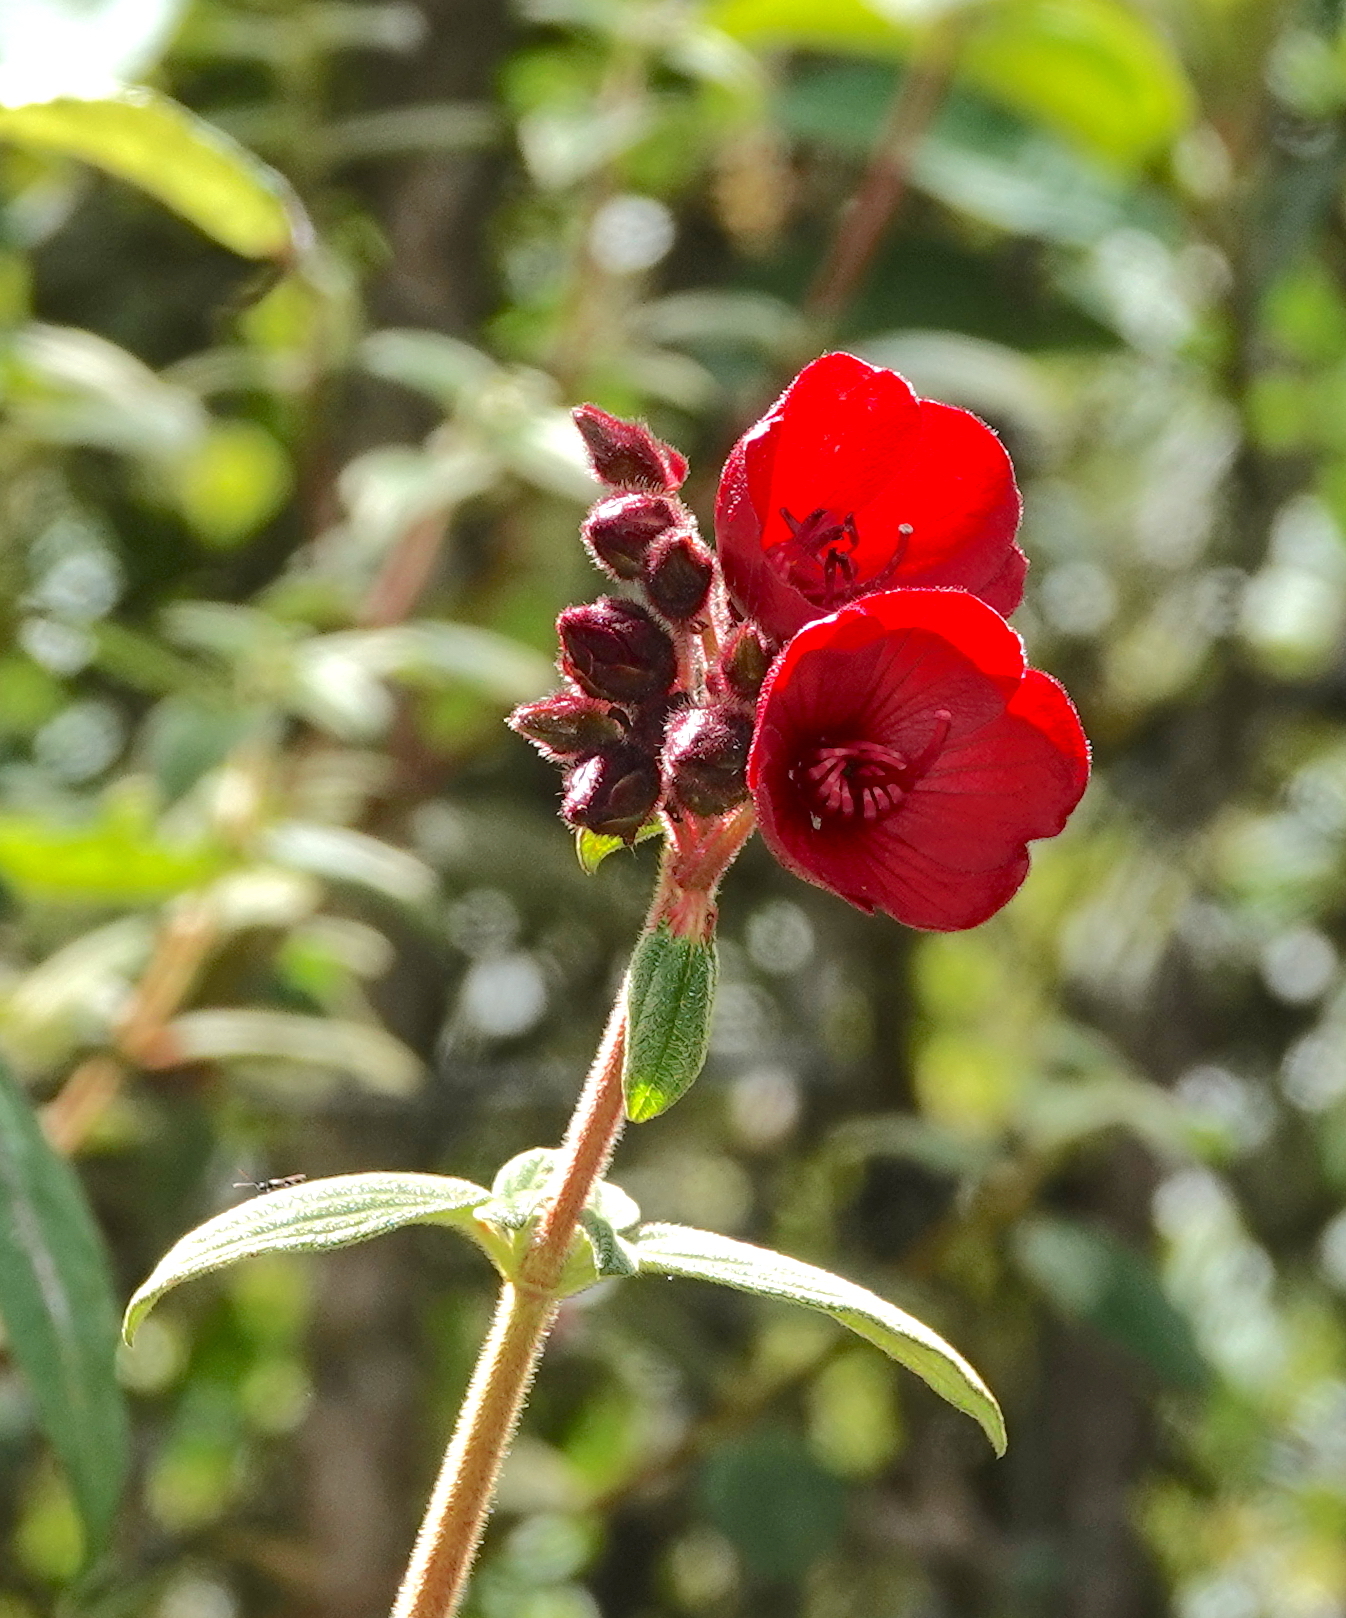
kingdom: Plantae
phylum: Tracheophyta
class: Magnoliopsida
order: Myrtales
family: Melastomataceae
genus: Chaetogastra
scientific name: Chaetogastra grossa
